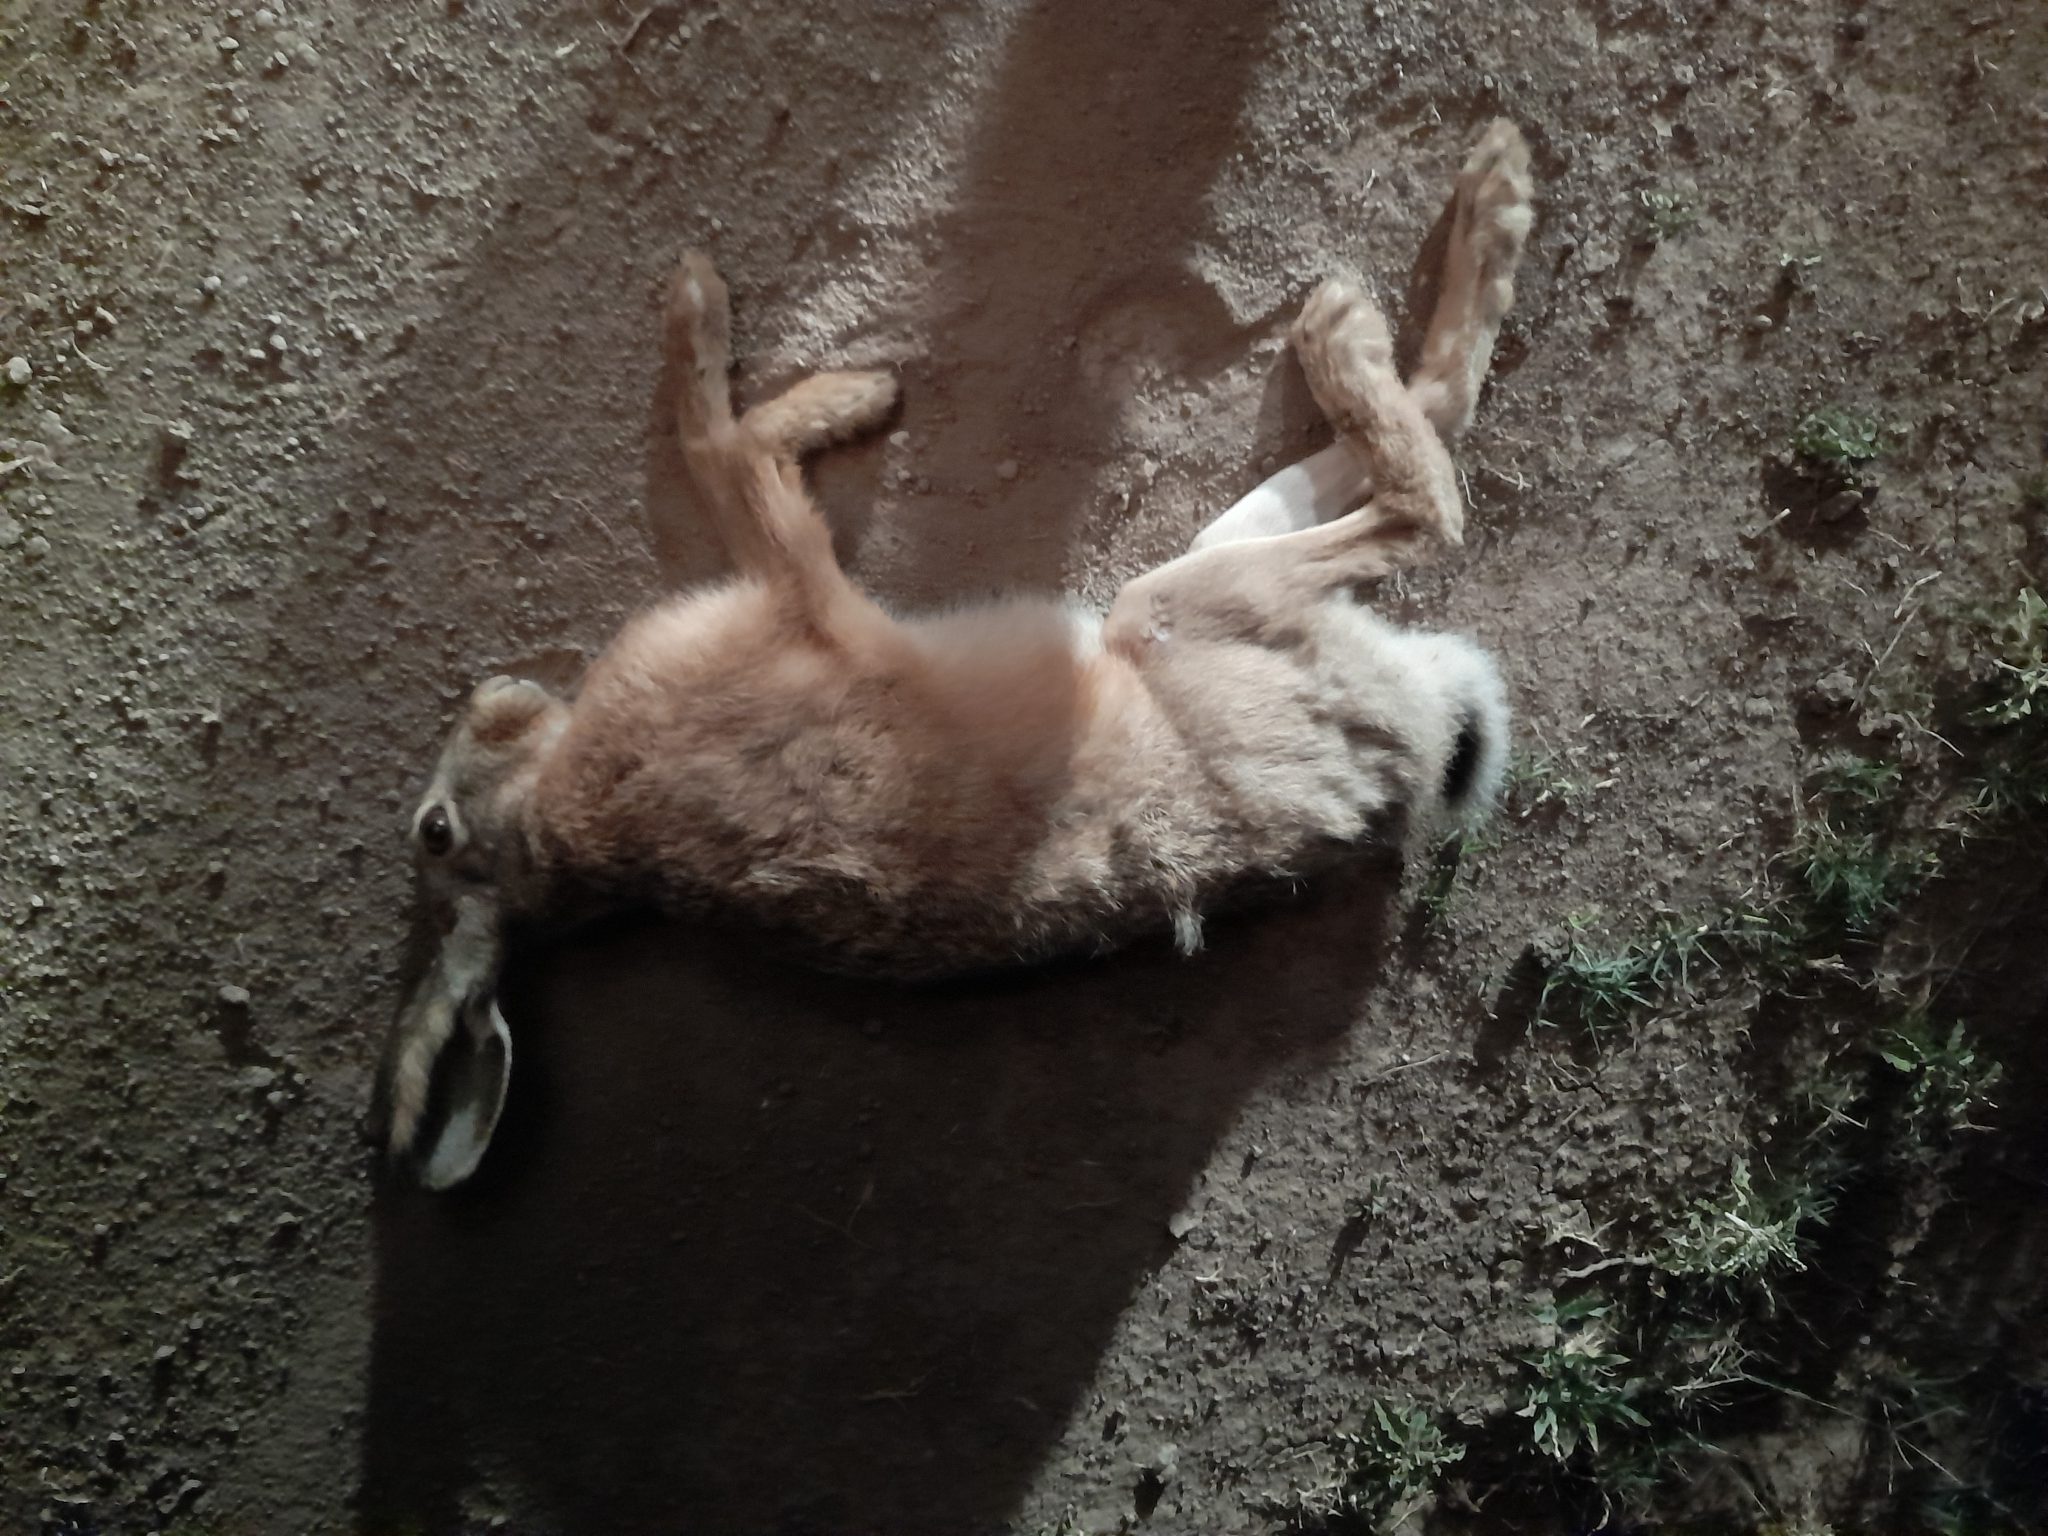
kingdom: Animalia
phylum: Chordata
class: Mammalia
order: Lagomorpha
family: Leporidae
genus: Lepus
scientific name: Lepus europaeus
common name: European hare
